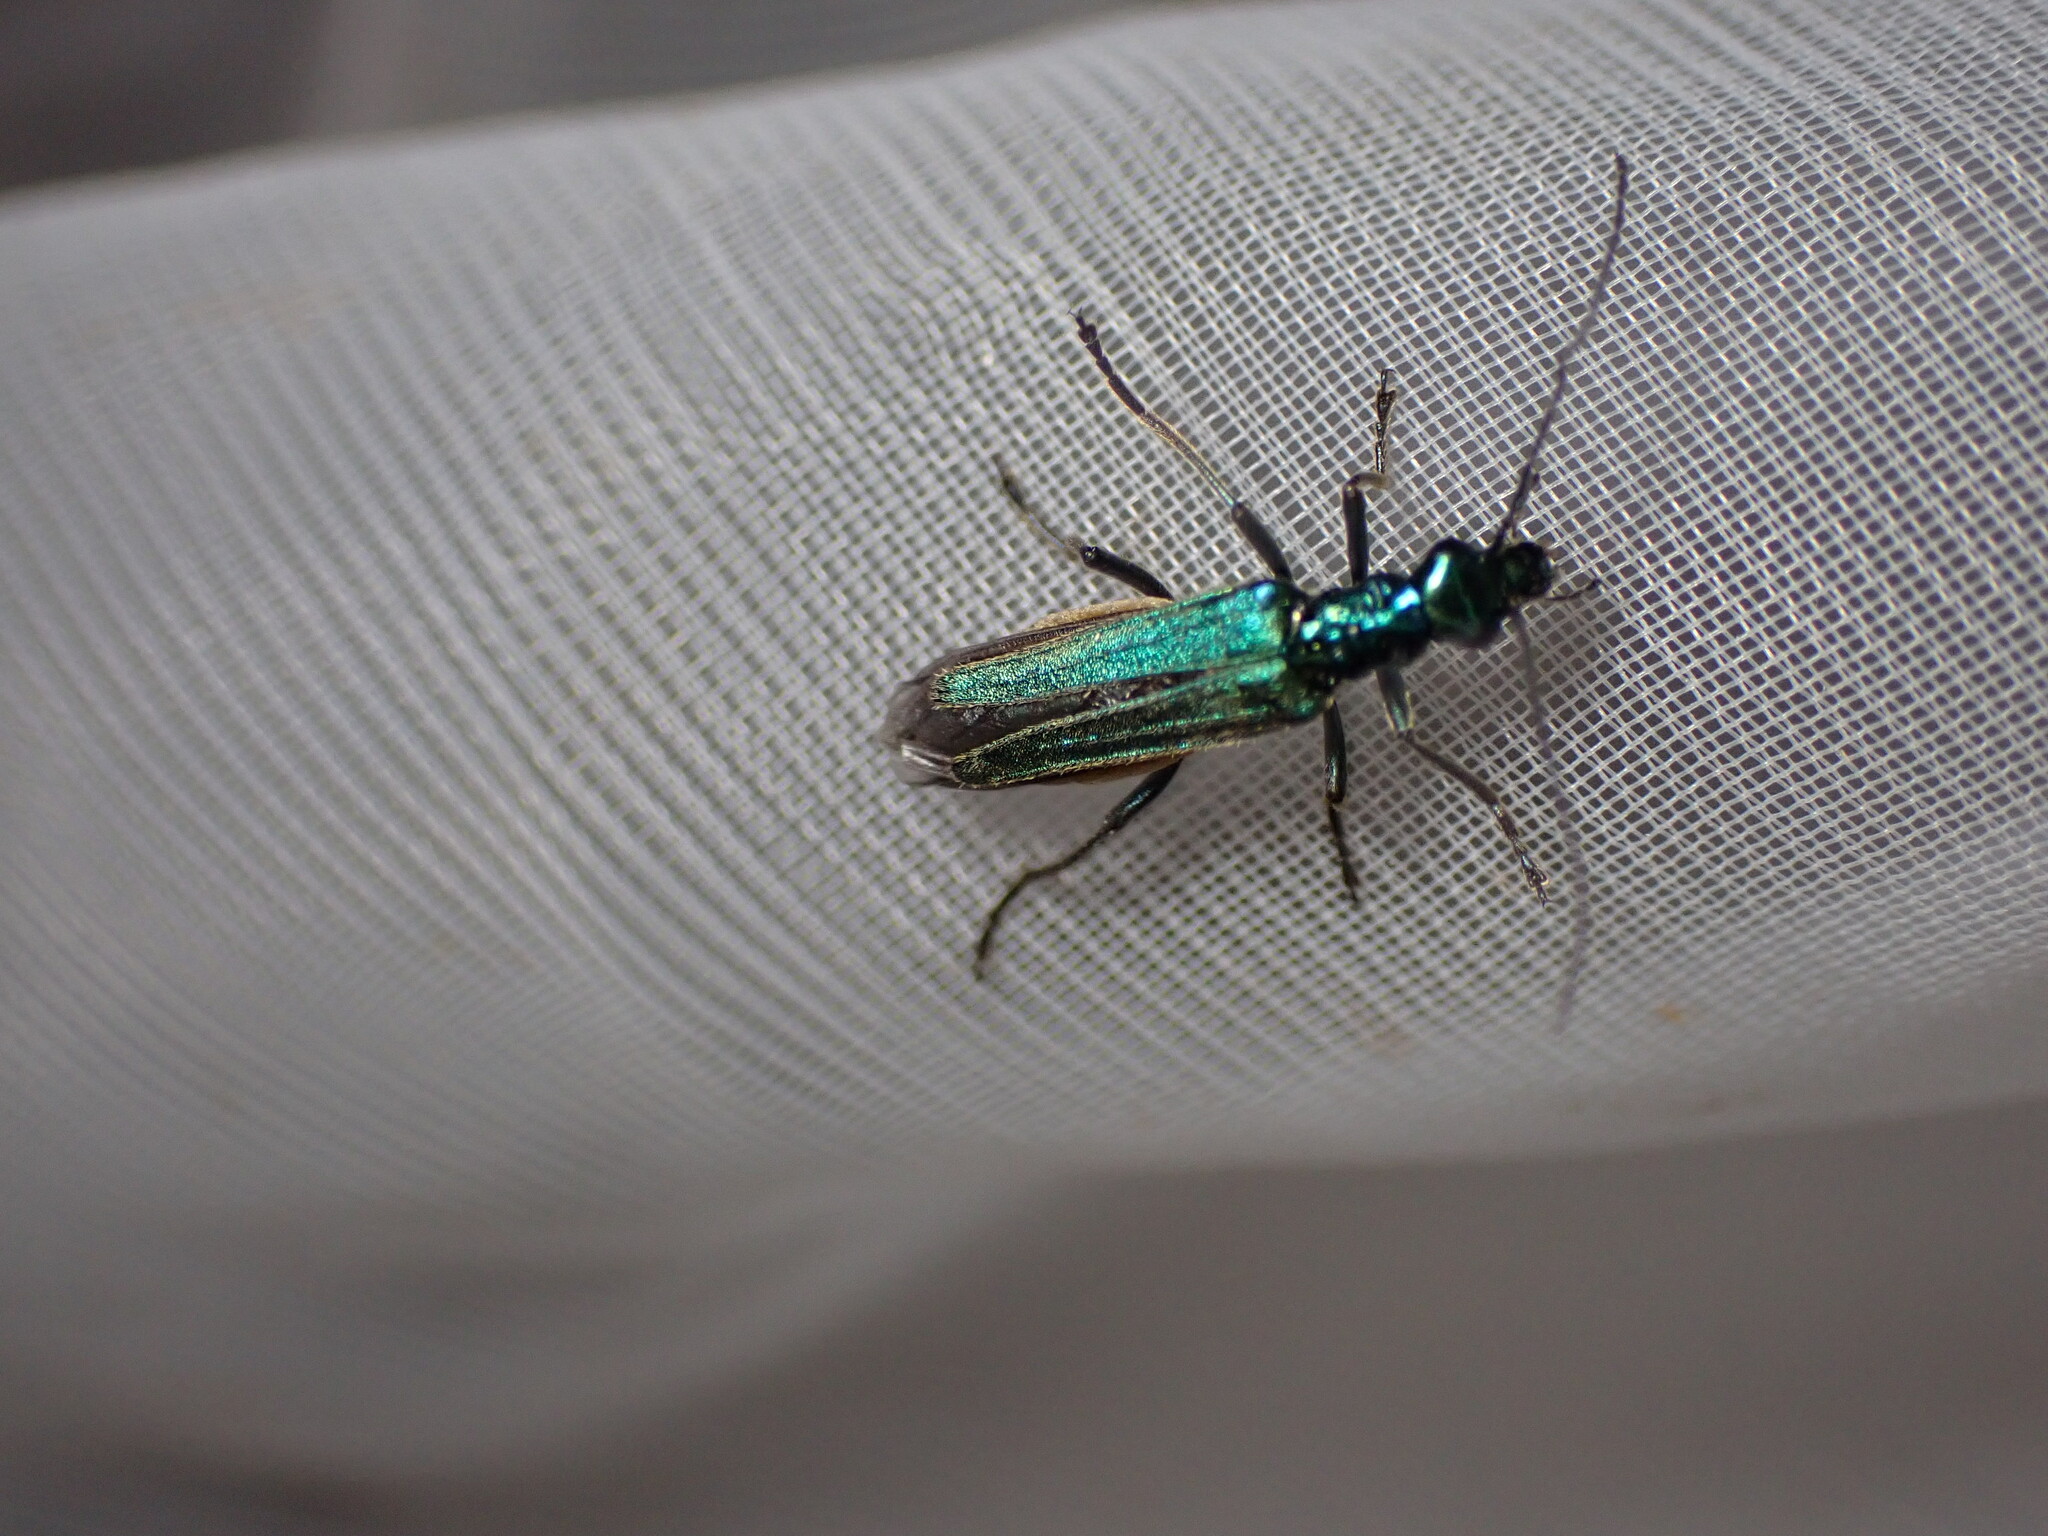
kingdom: Animalia
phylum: Arthropoda
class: Insecta
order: Coleoptera
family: Oedemeridae
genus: Oedemera
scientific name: Oedemera nobilis
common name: Swollen-thighed beetle
